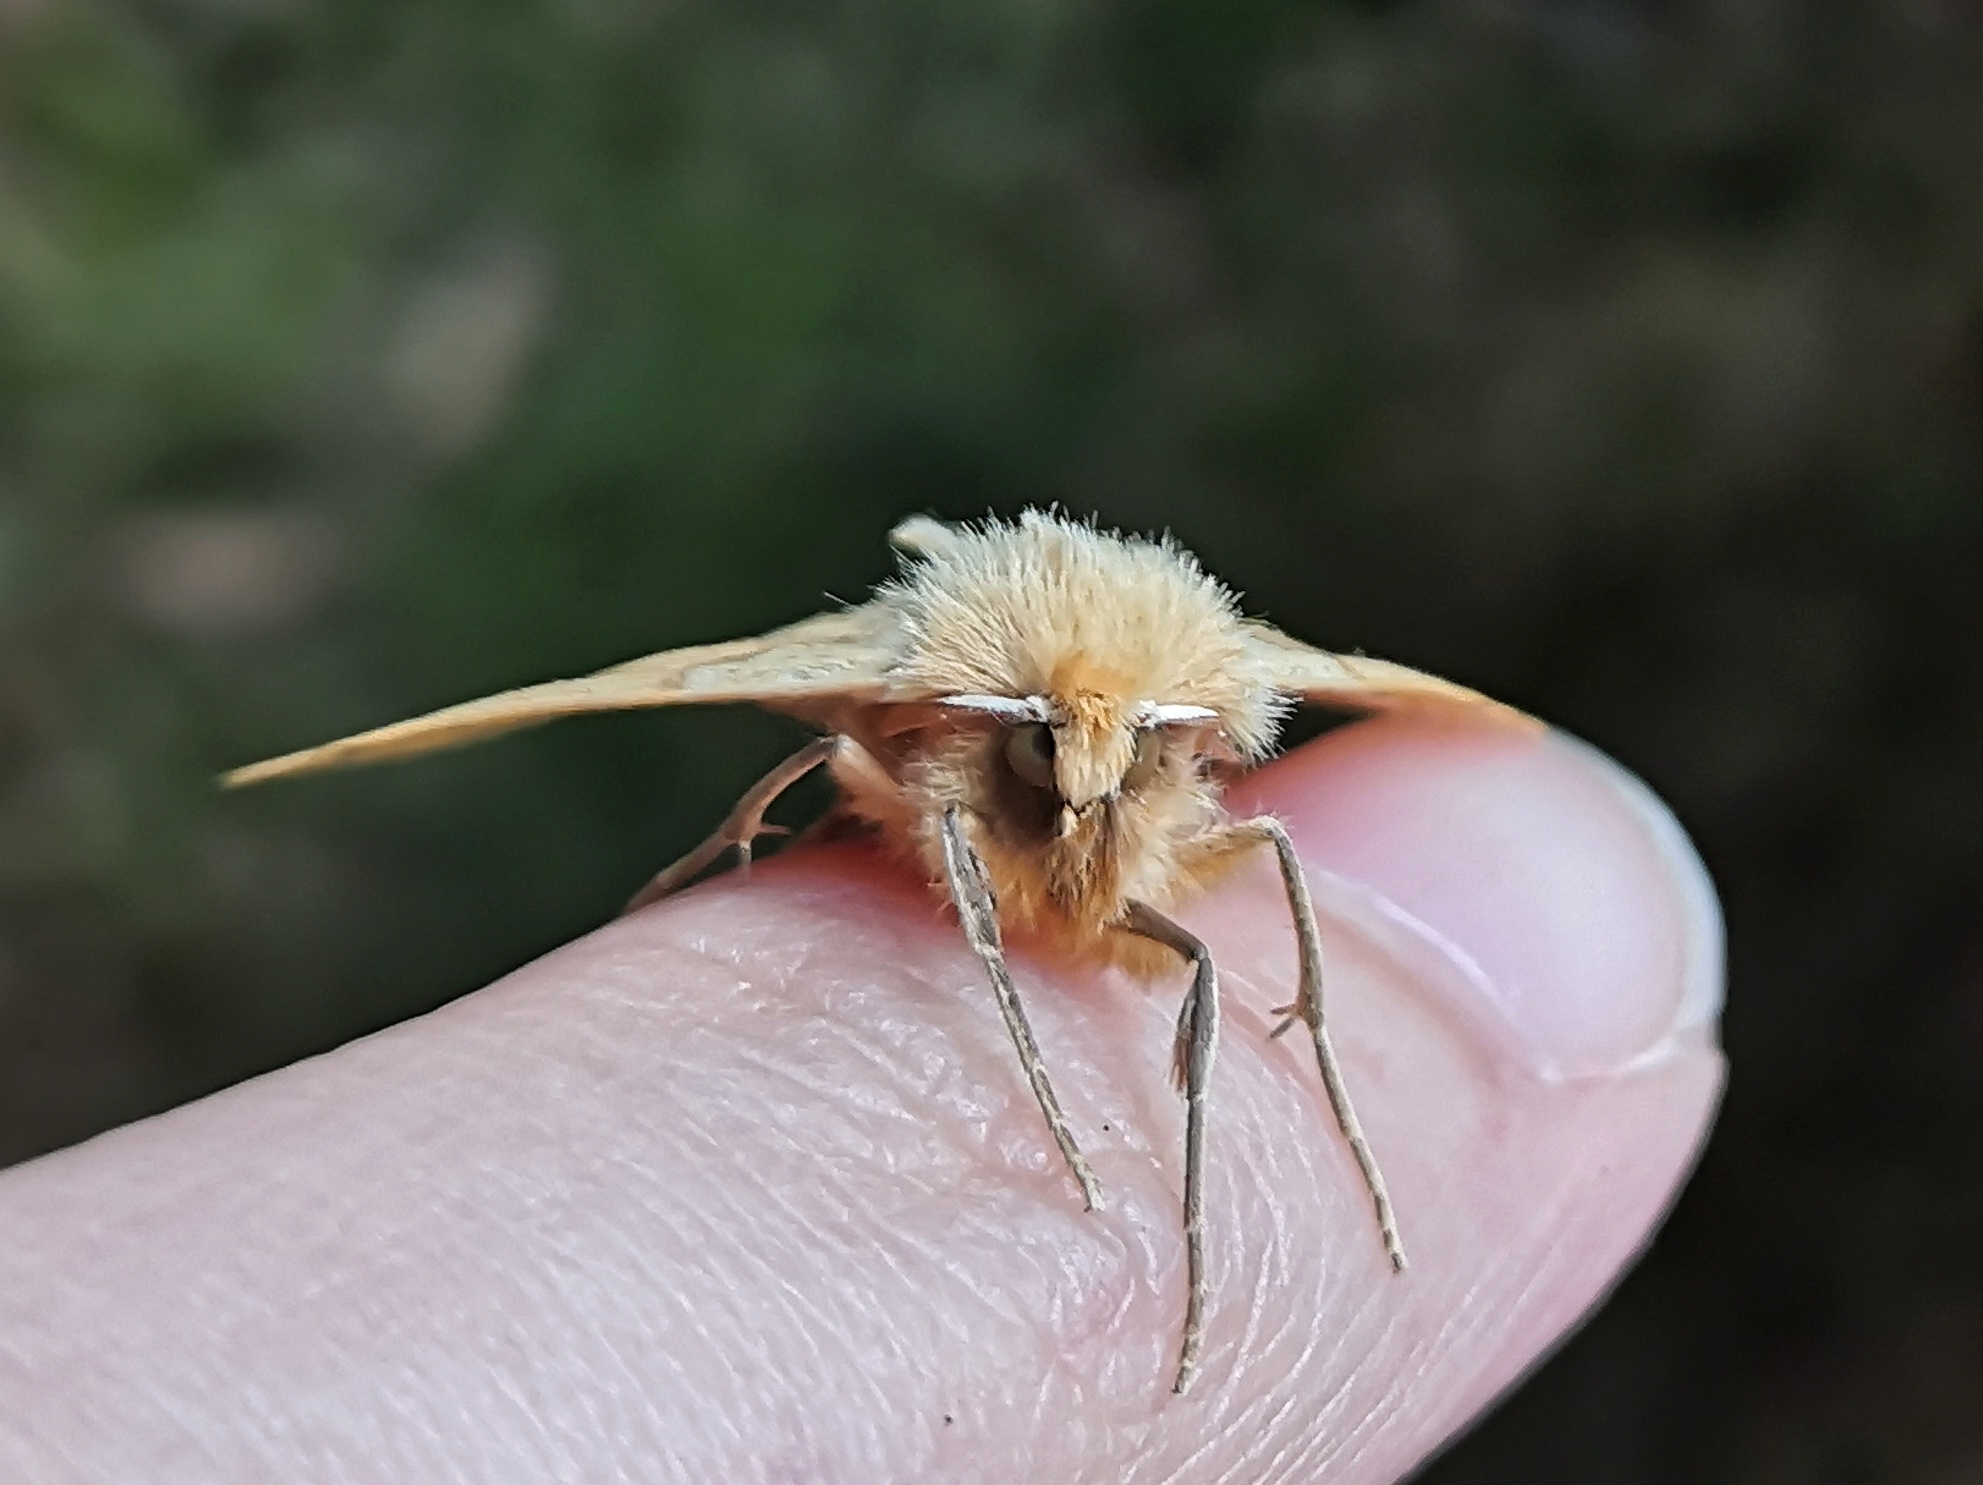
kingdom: Animalia
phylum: Arthropoda
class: Insecta
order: Lepidoptera
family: Geometridae
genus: Crocallis
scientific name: Crocallis elinguaria
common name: Scalloped oak
